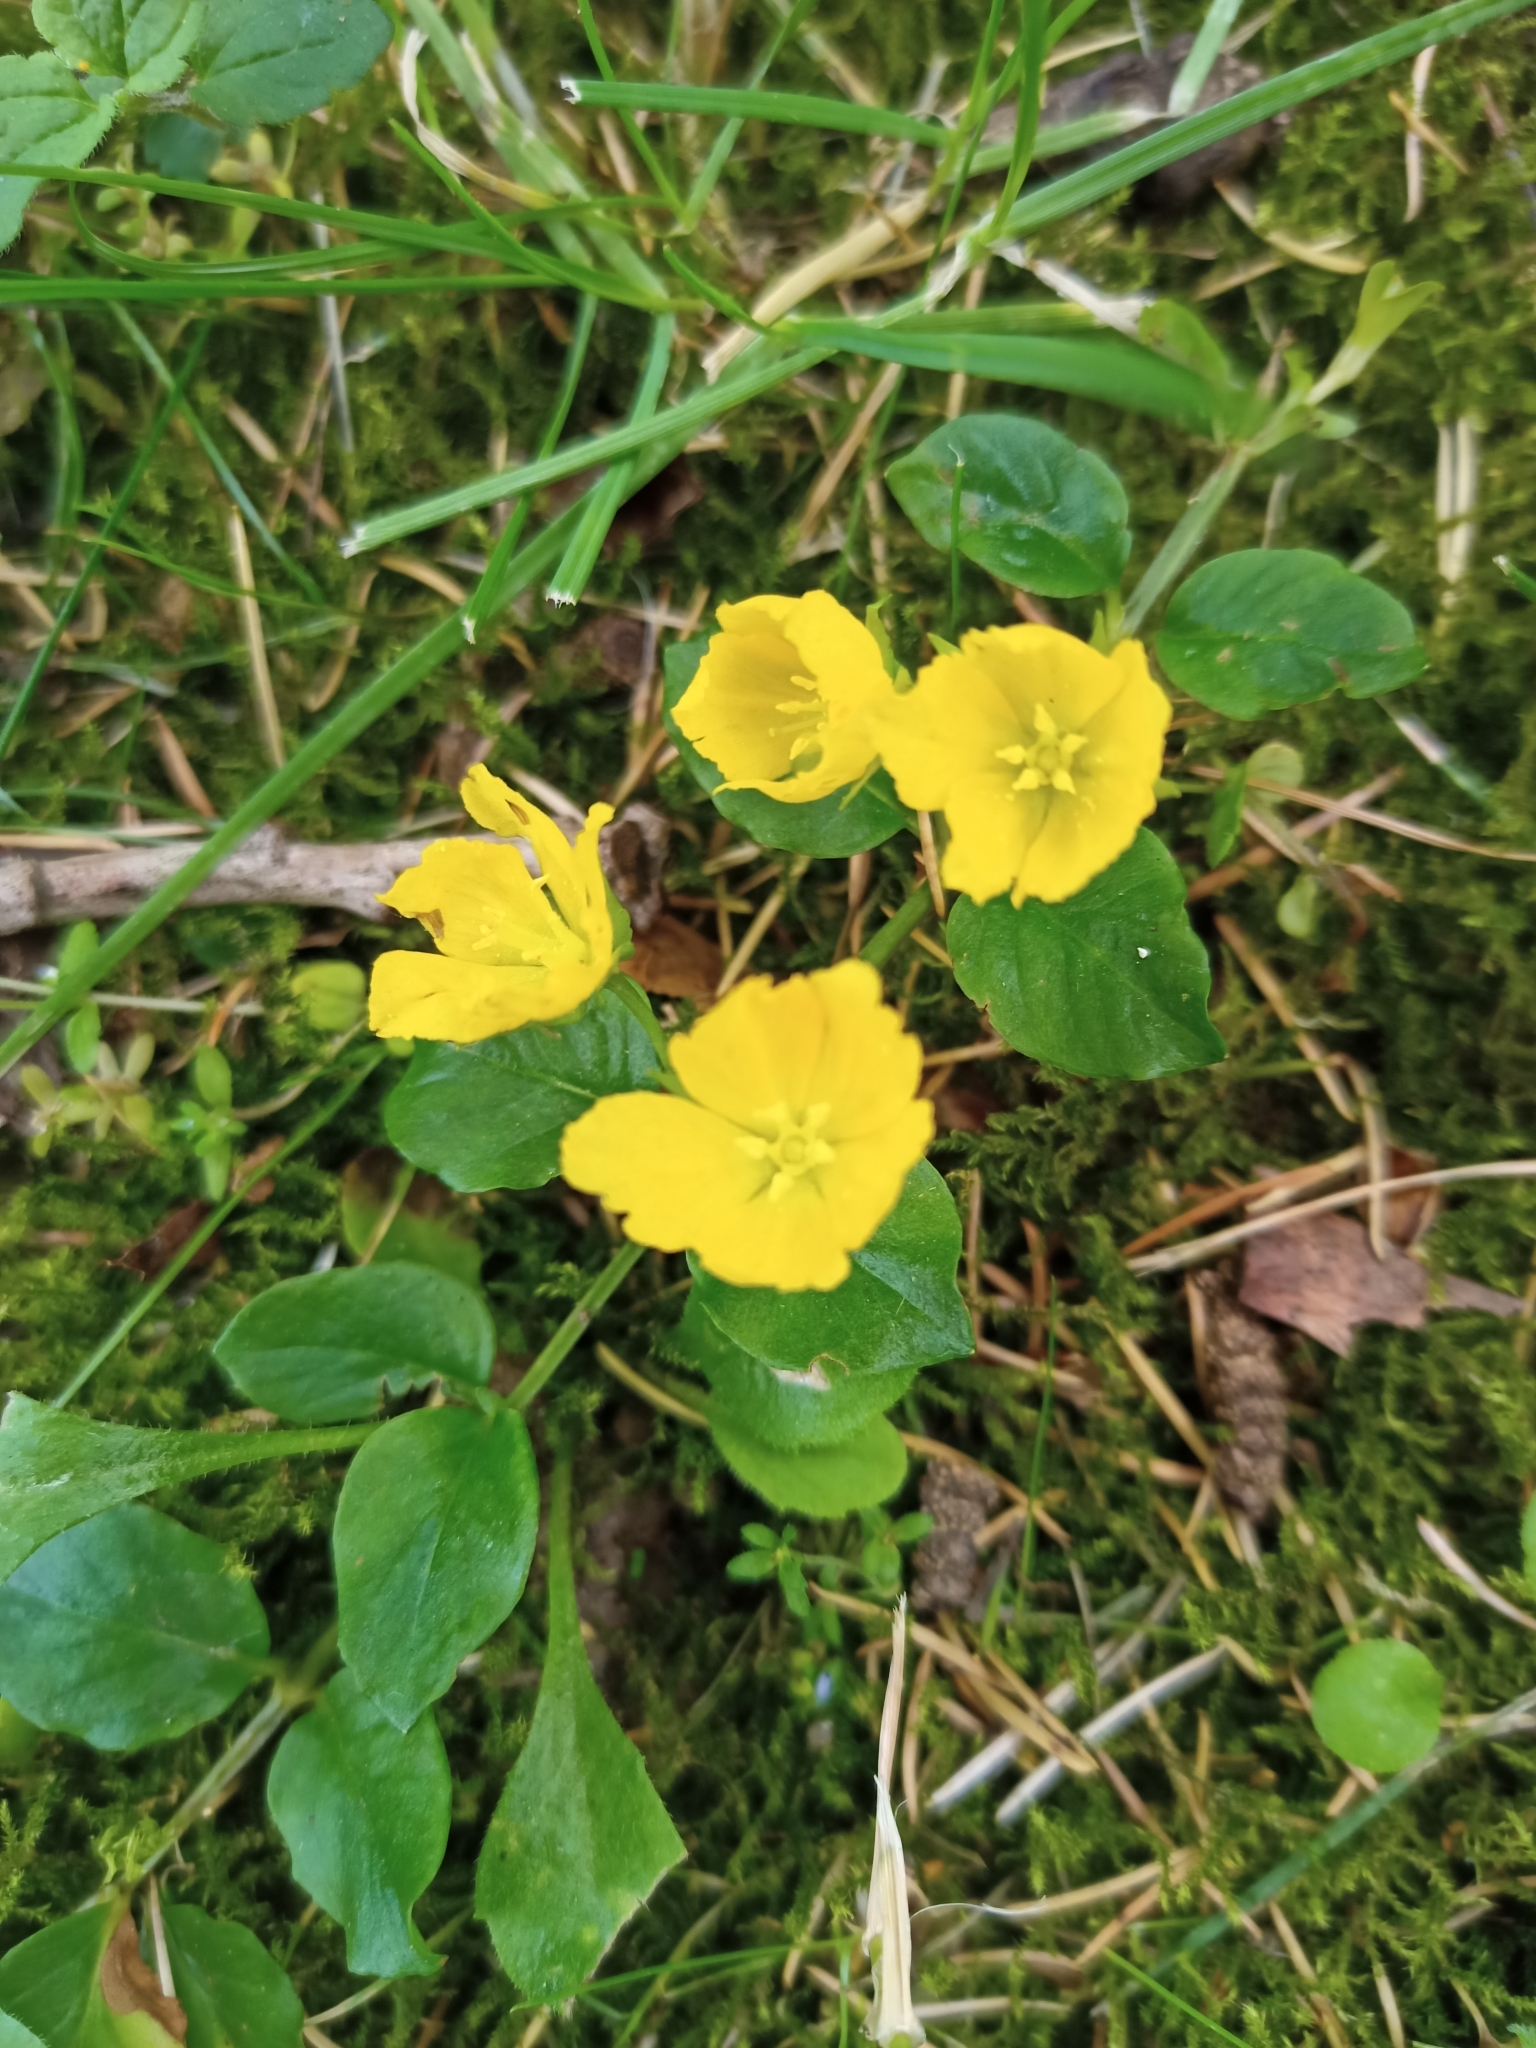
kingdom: Plantae
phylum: Tracheophyta
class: Magnoliopsida
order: Ericales
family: Primulaceae
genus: Lysimachia
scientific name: Lysimachia nummularia
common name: Moneywort
